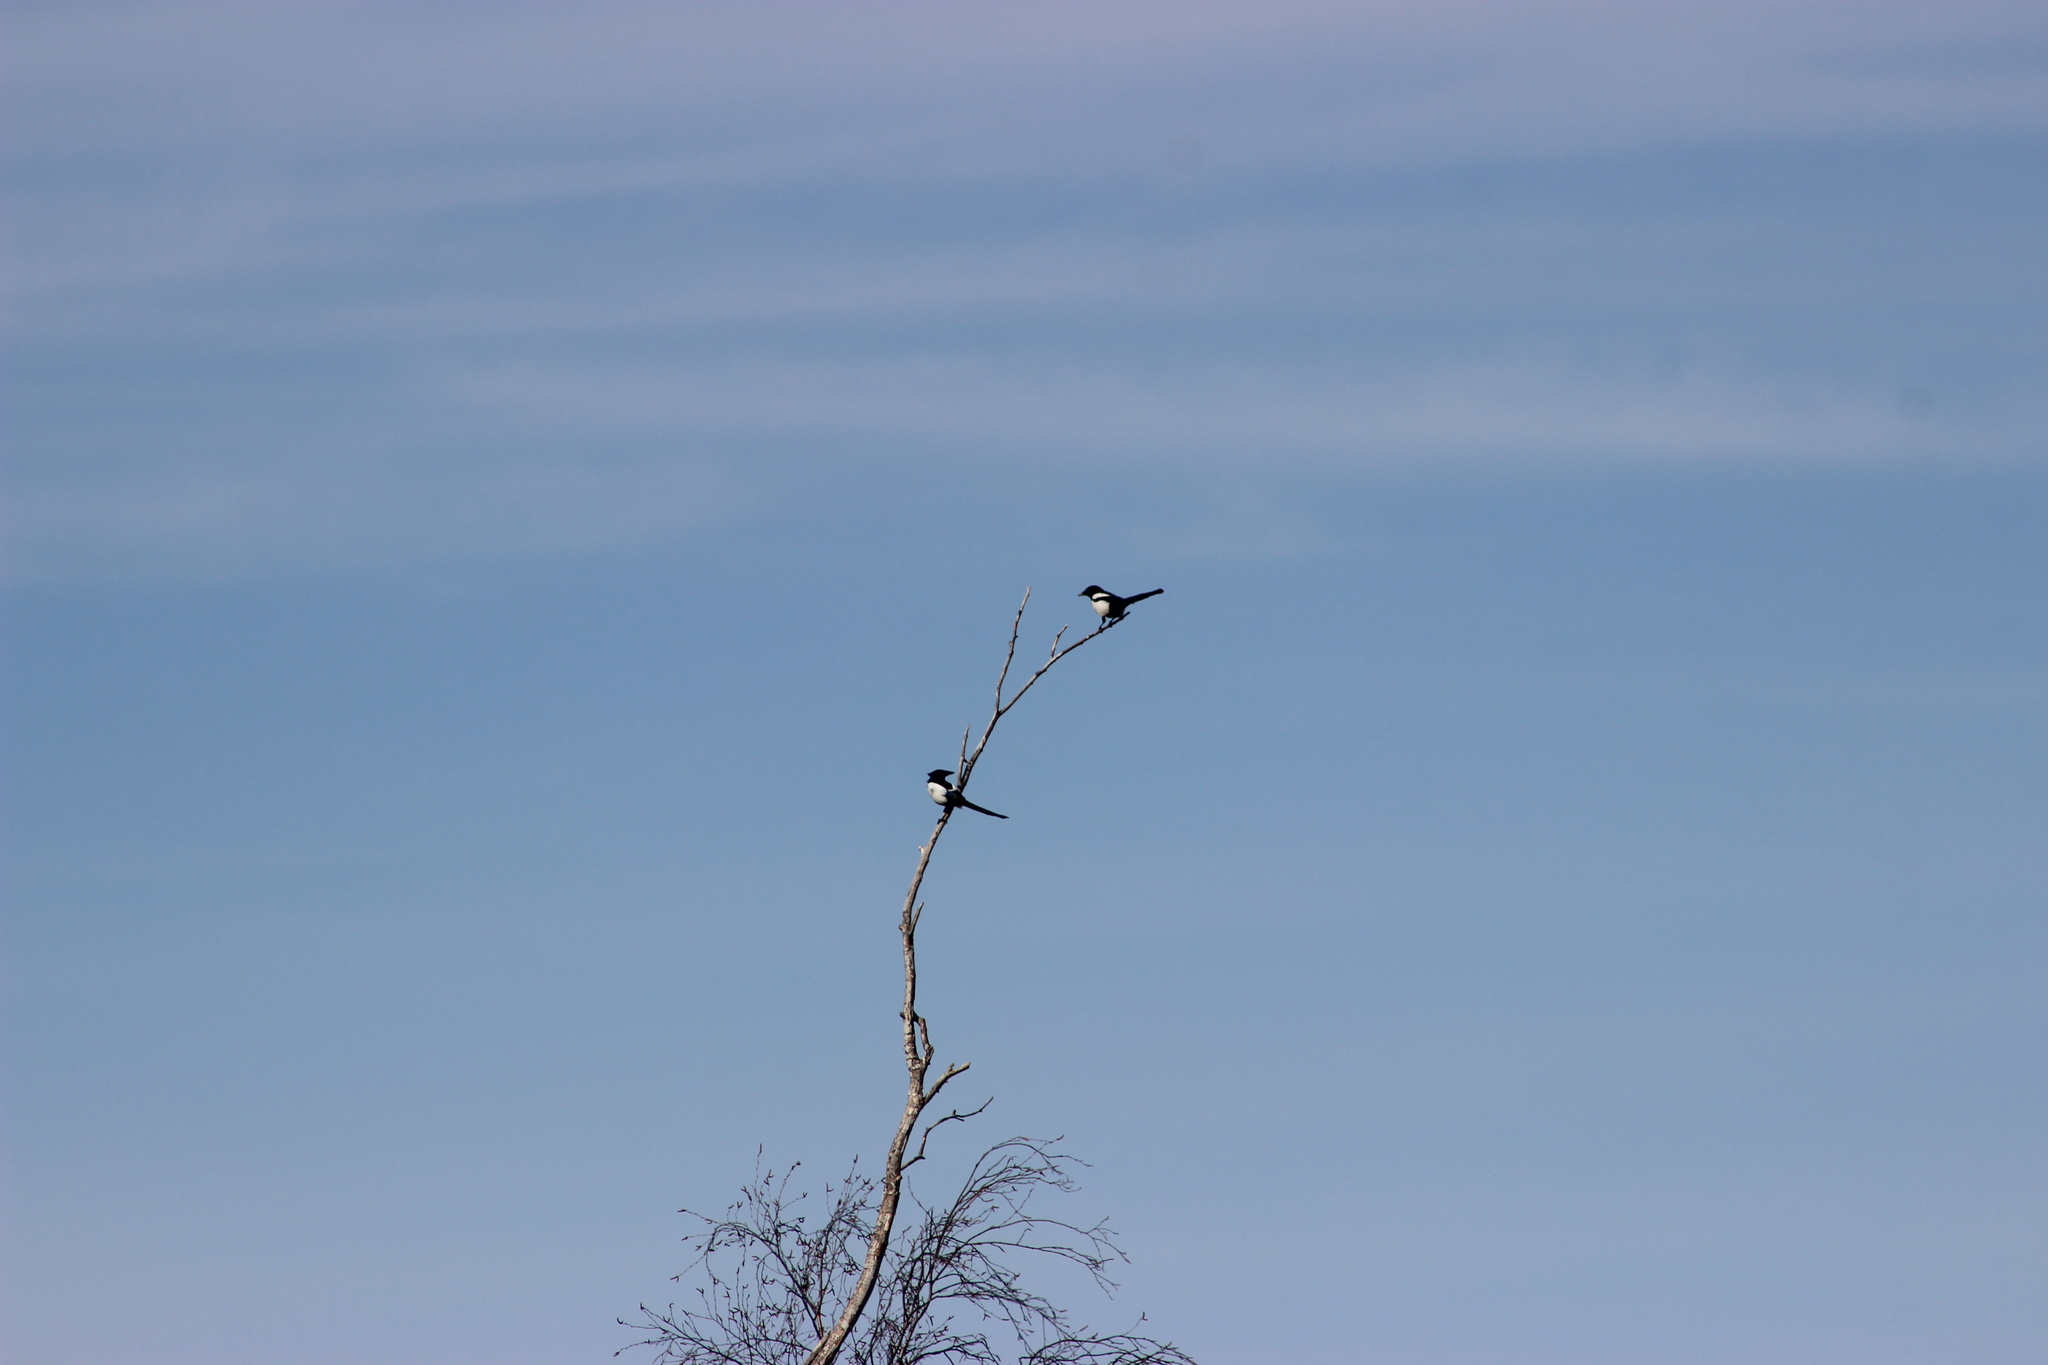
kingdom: Animalia
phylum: Chordata
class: Aves
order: Passeriformes
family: Corvidae
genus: Pica
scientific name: Pica pica
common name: Eurasian magpie
